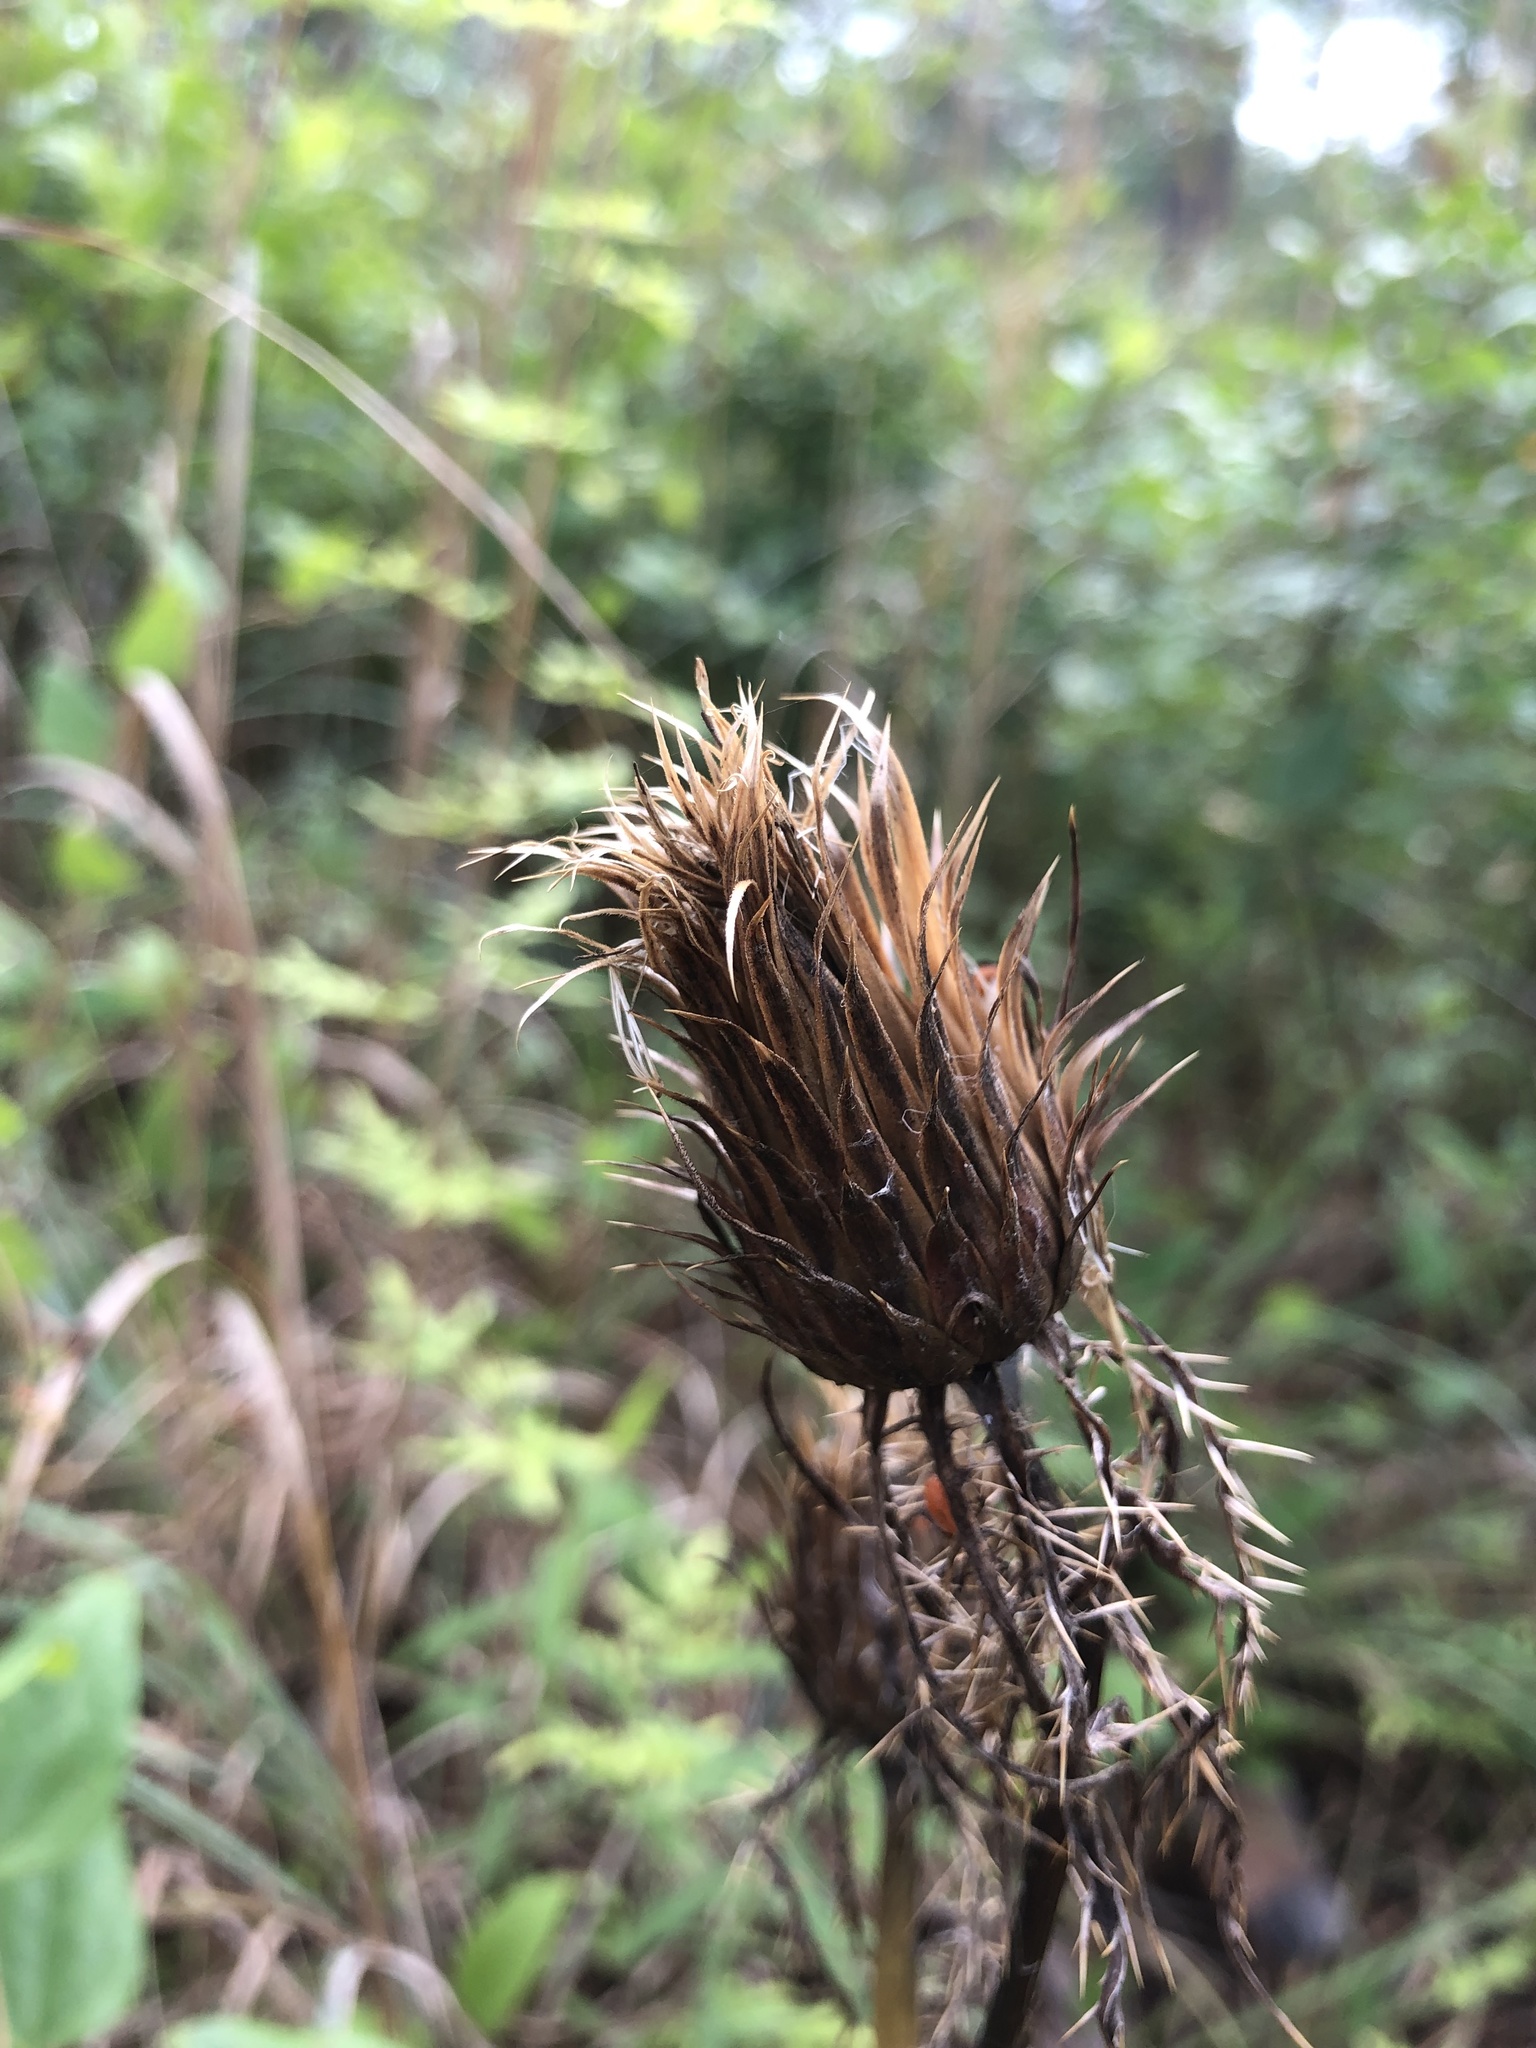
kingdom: Plantae
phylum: Tracheophyta
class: Magnoliopsida
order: Asterales
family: Asteraceae
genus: Cirsium
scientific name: Cirsium horridulum
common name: Bristly thistle
